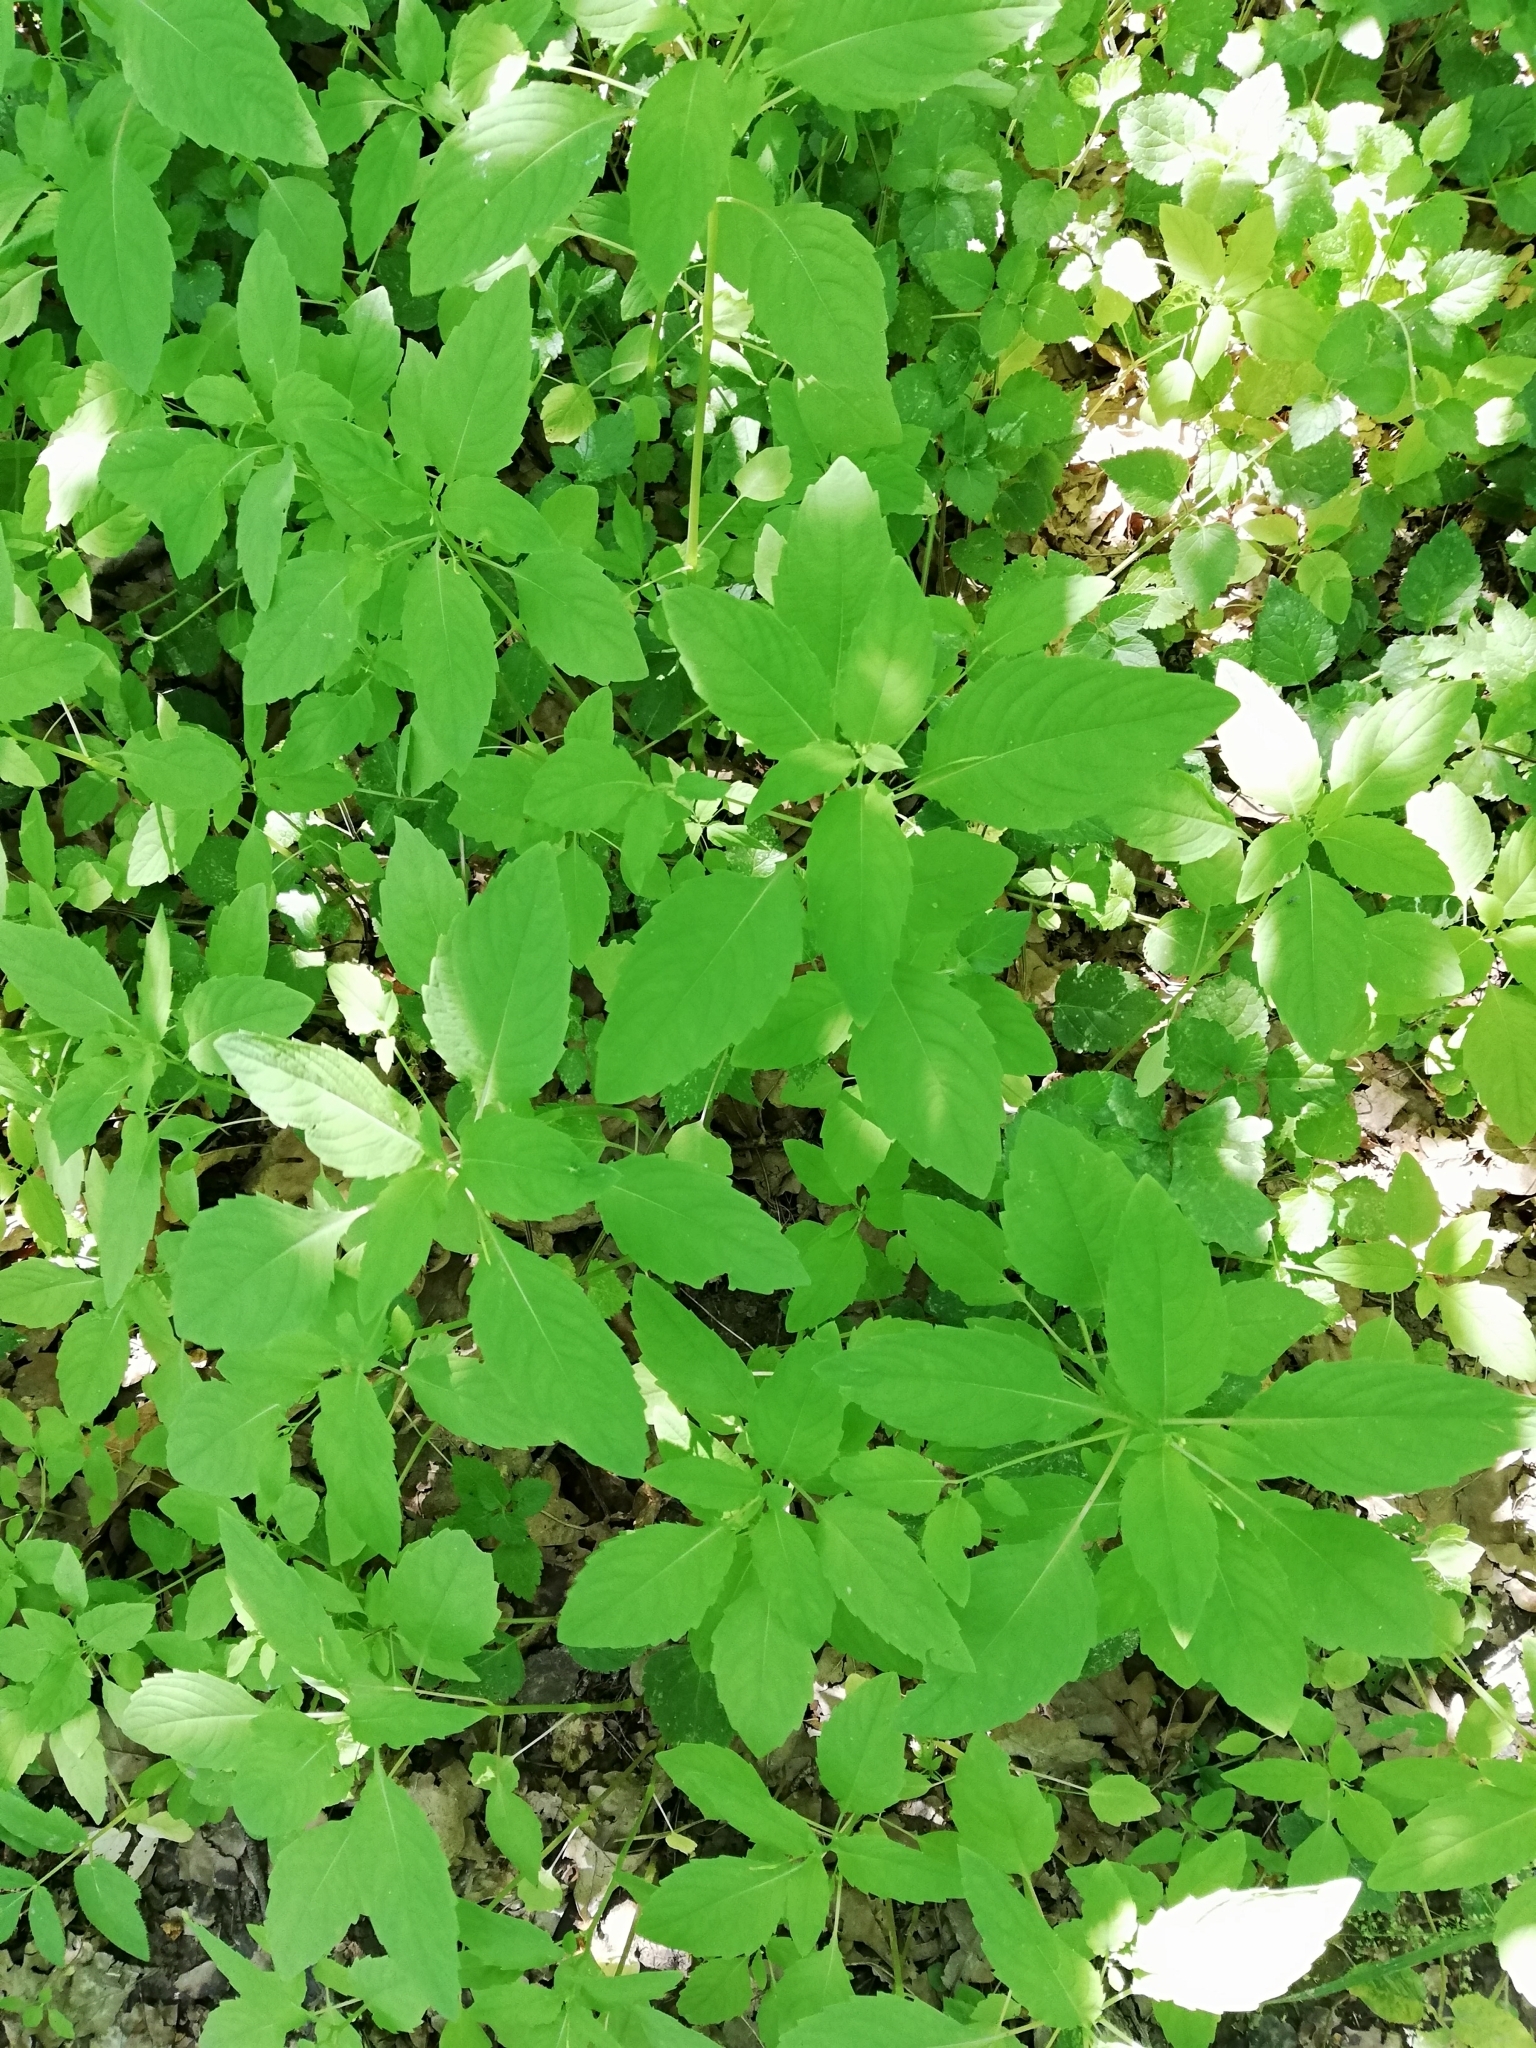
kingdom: Plantae
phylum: Tracheophyta
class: Magnoliopsida
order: Ericales
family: Balsaminaceae
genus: Impatiens
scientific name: Impatiens noli-tangere
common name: Touch-me-not balsam
